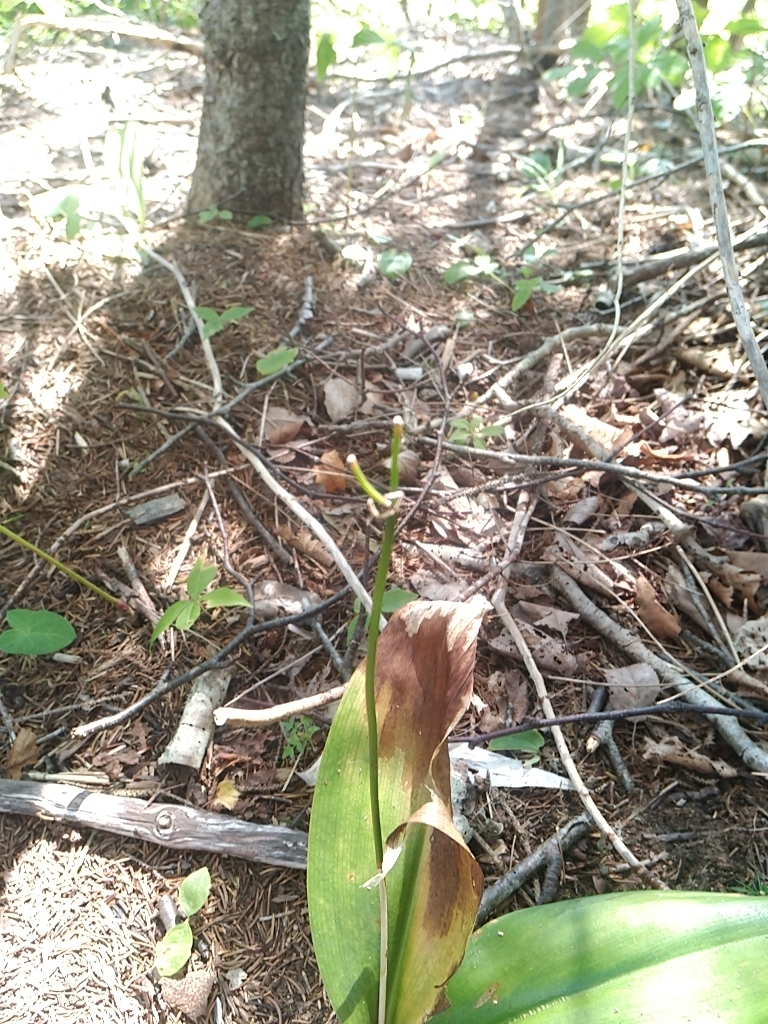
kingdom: Plantae
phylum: Tracheophyta
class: Liliopsida
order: Liliales
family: Liliaceae
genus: Clintonia
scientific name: Clintonia borealis
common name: Yellow clintonia
